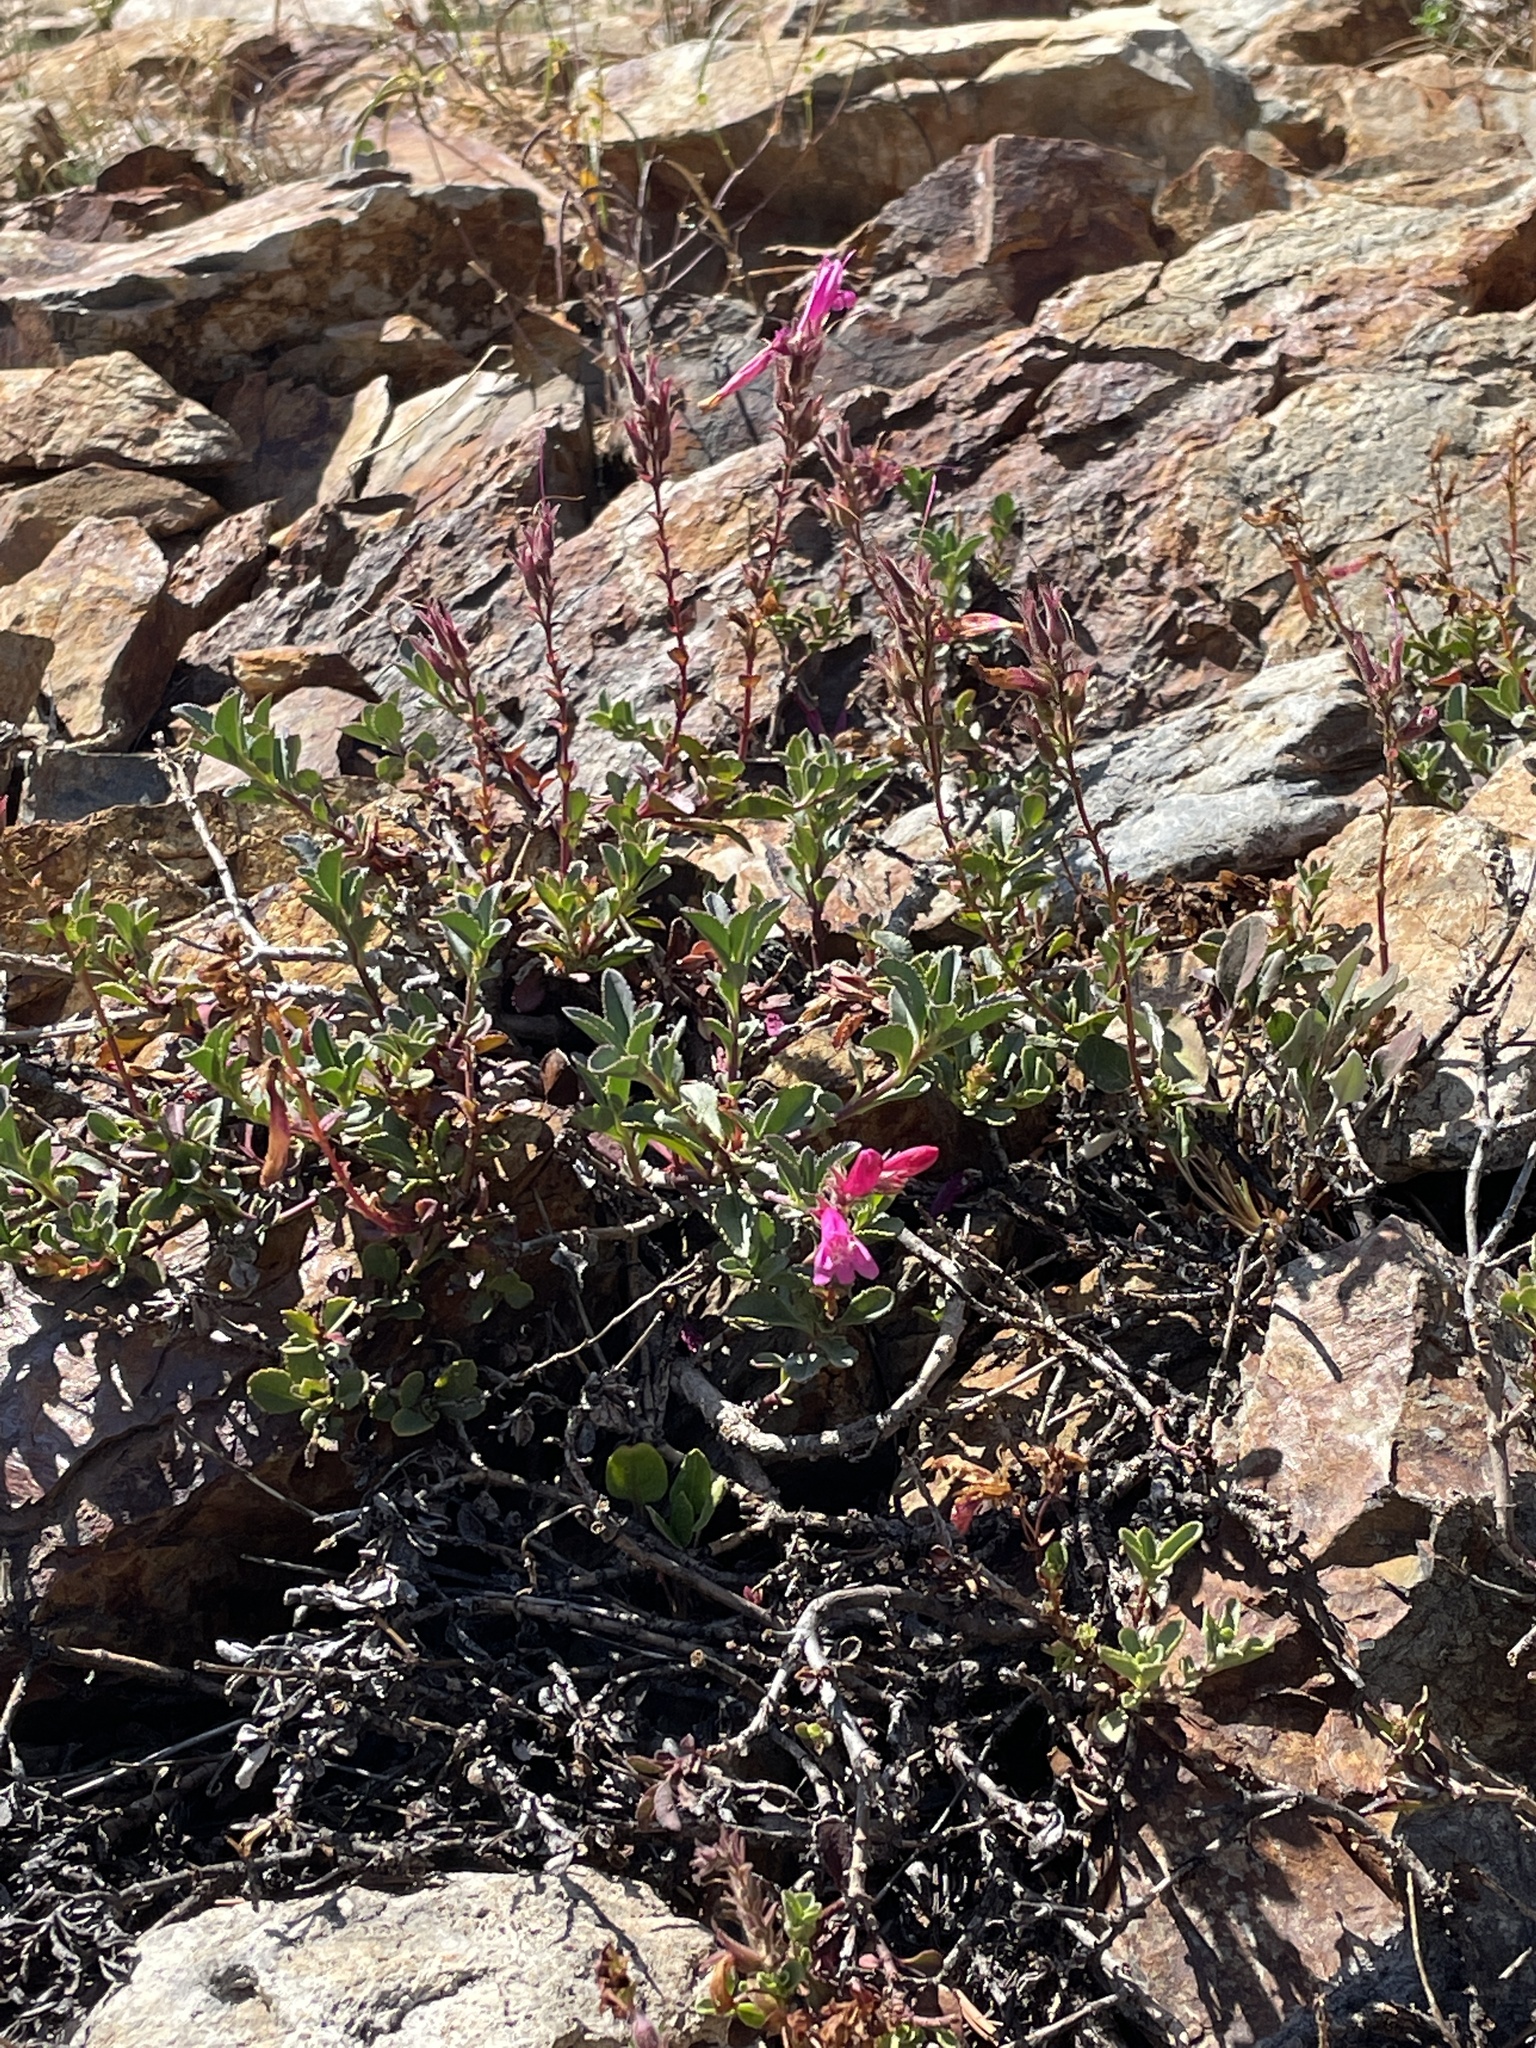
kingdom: Plantae
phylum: Tracheophyta
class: Magnoliopsida
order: Lamiales
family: Plantaginaceae
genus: Penstemon
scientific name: Penstemon newberryi
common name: Mountain-pride
